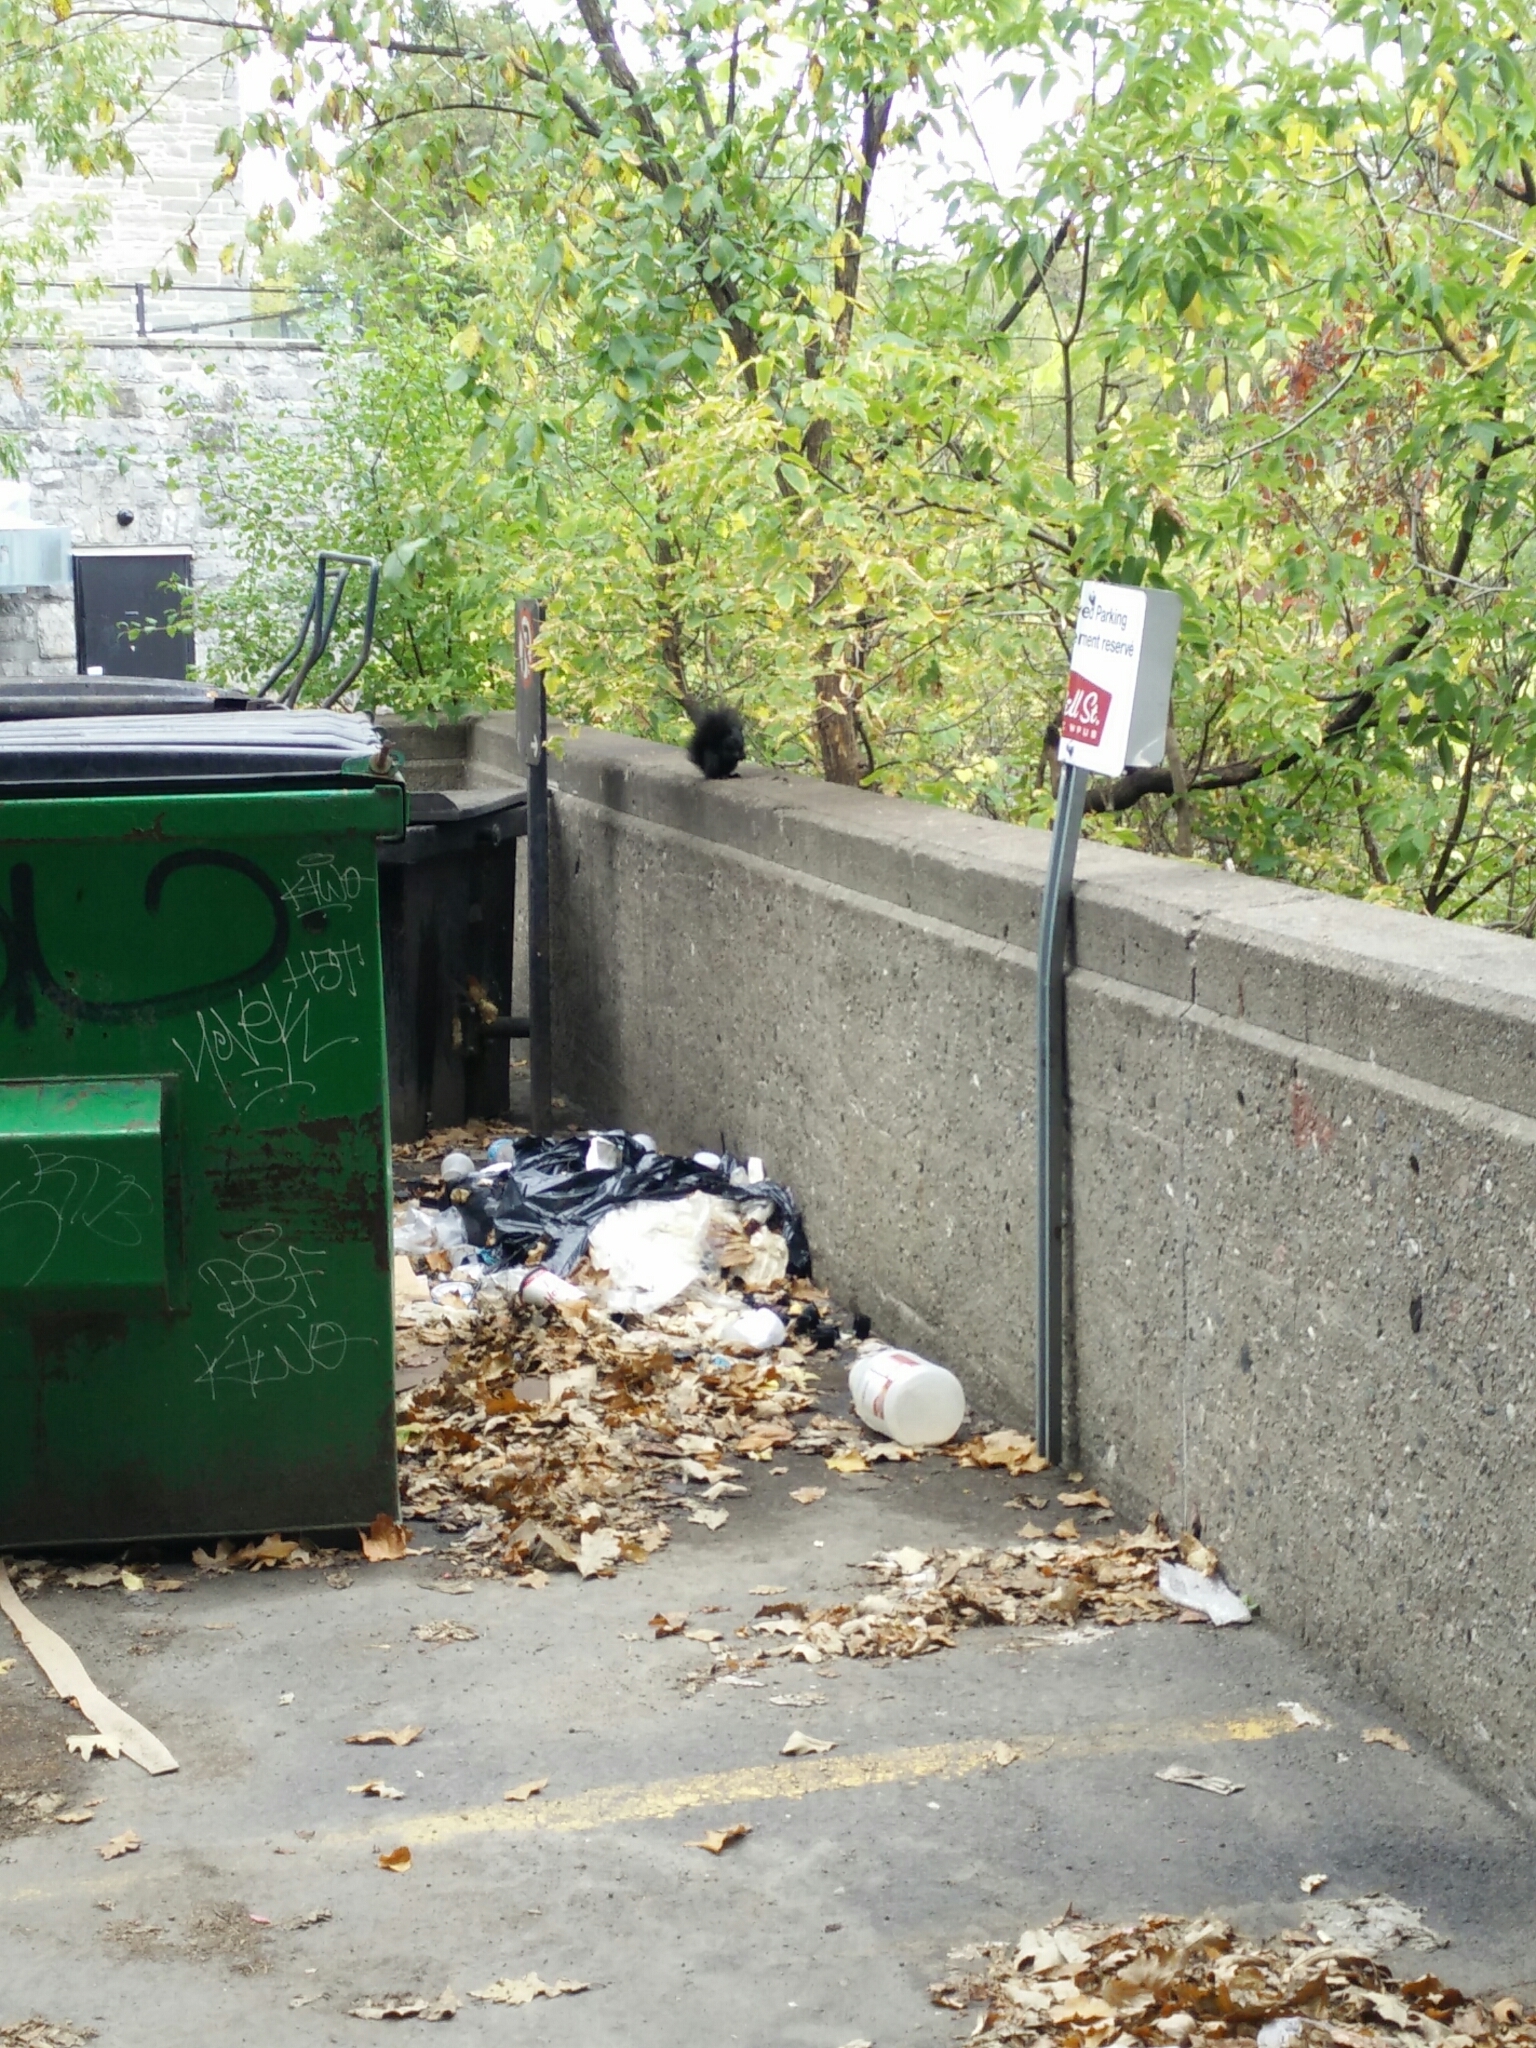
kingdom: Animalia
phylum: Chordata
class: Mammalia
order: Rodentia
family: Sciuridae
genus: Sciurus
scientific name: Sciurus carolinensis
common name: Eastern gray squirrel
